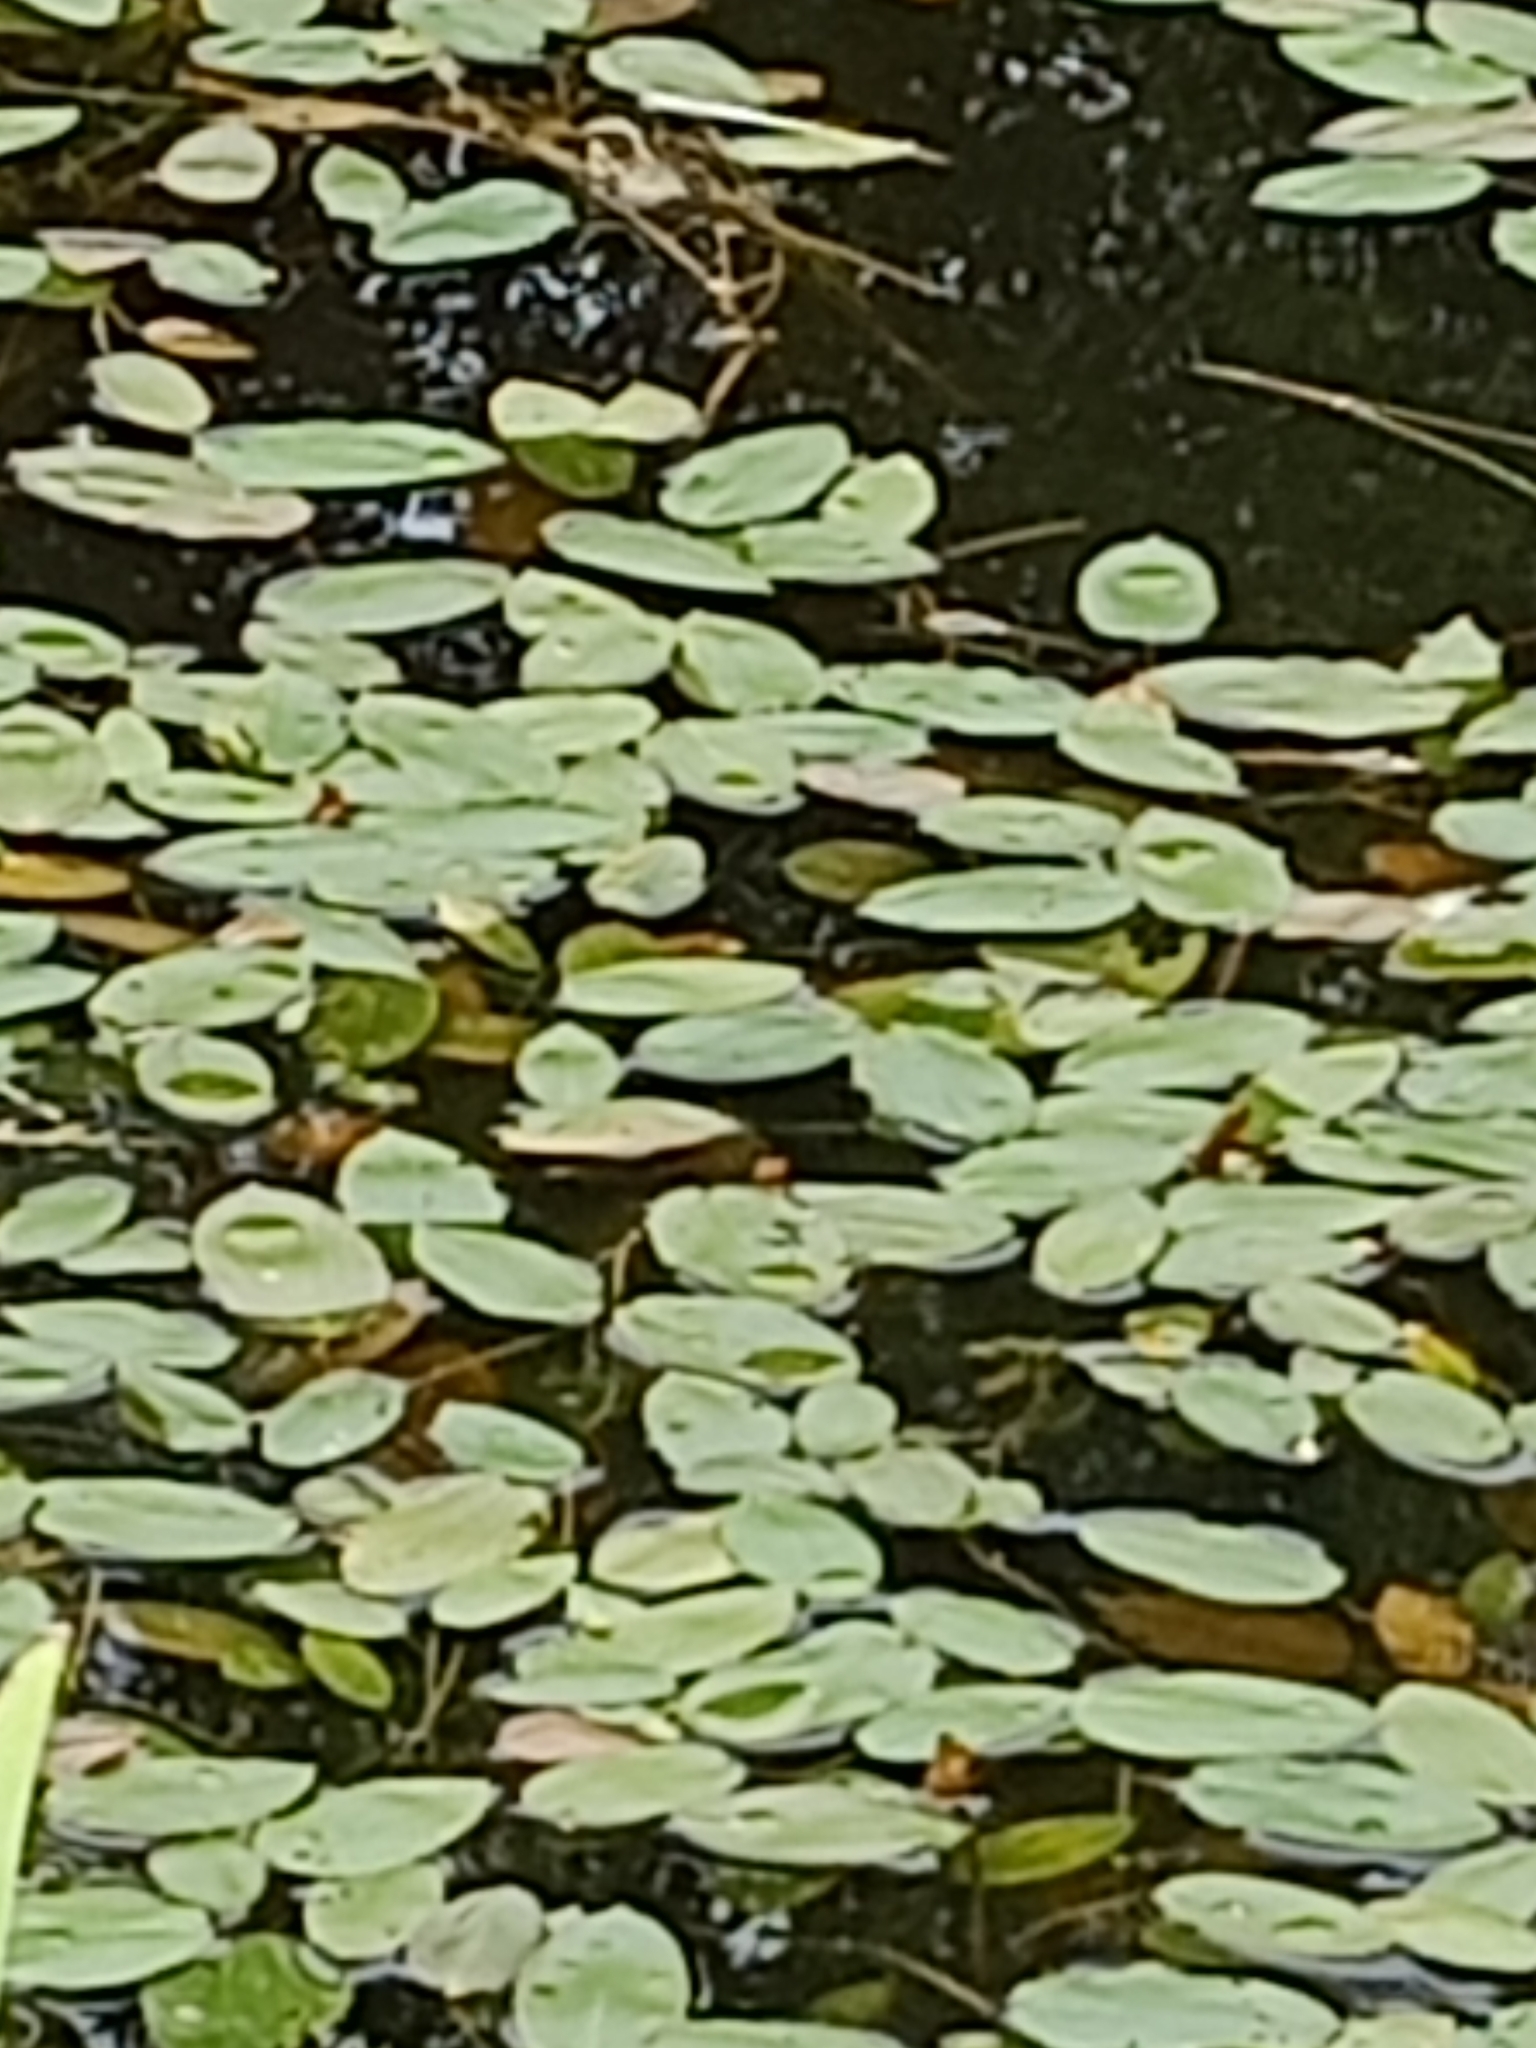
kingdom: Plantae
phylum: Tracheophyta
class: Liliopsida
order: Alismatales
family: Potamogetonaceae
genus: Potamogeton
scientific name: Potamogeton natans
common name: Broad-leaved pondweed
